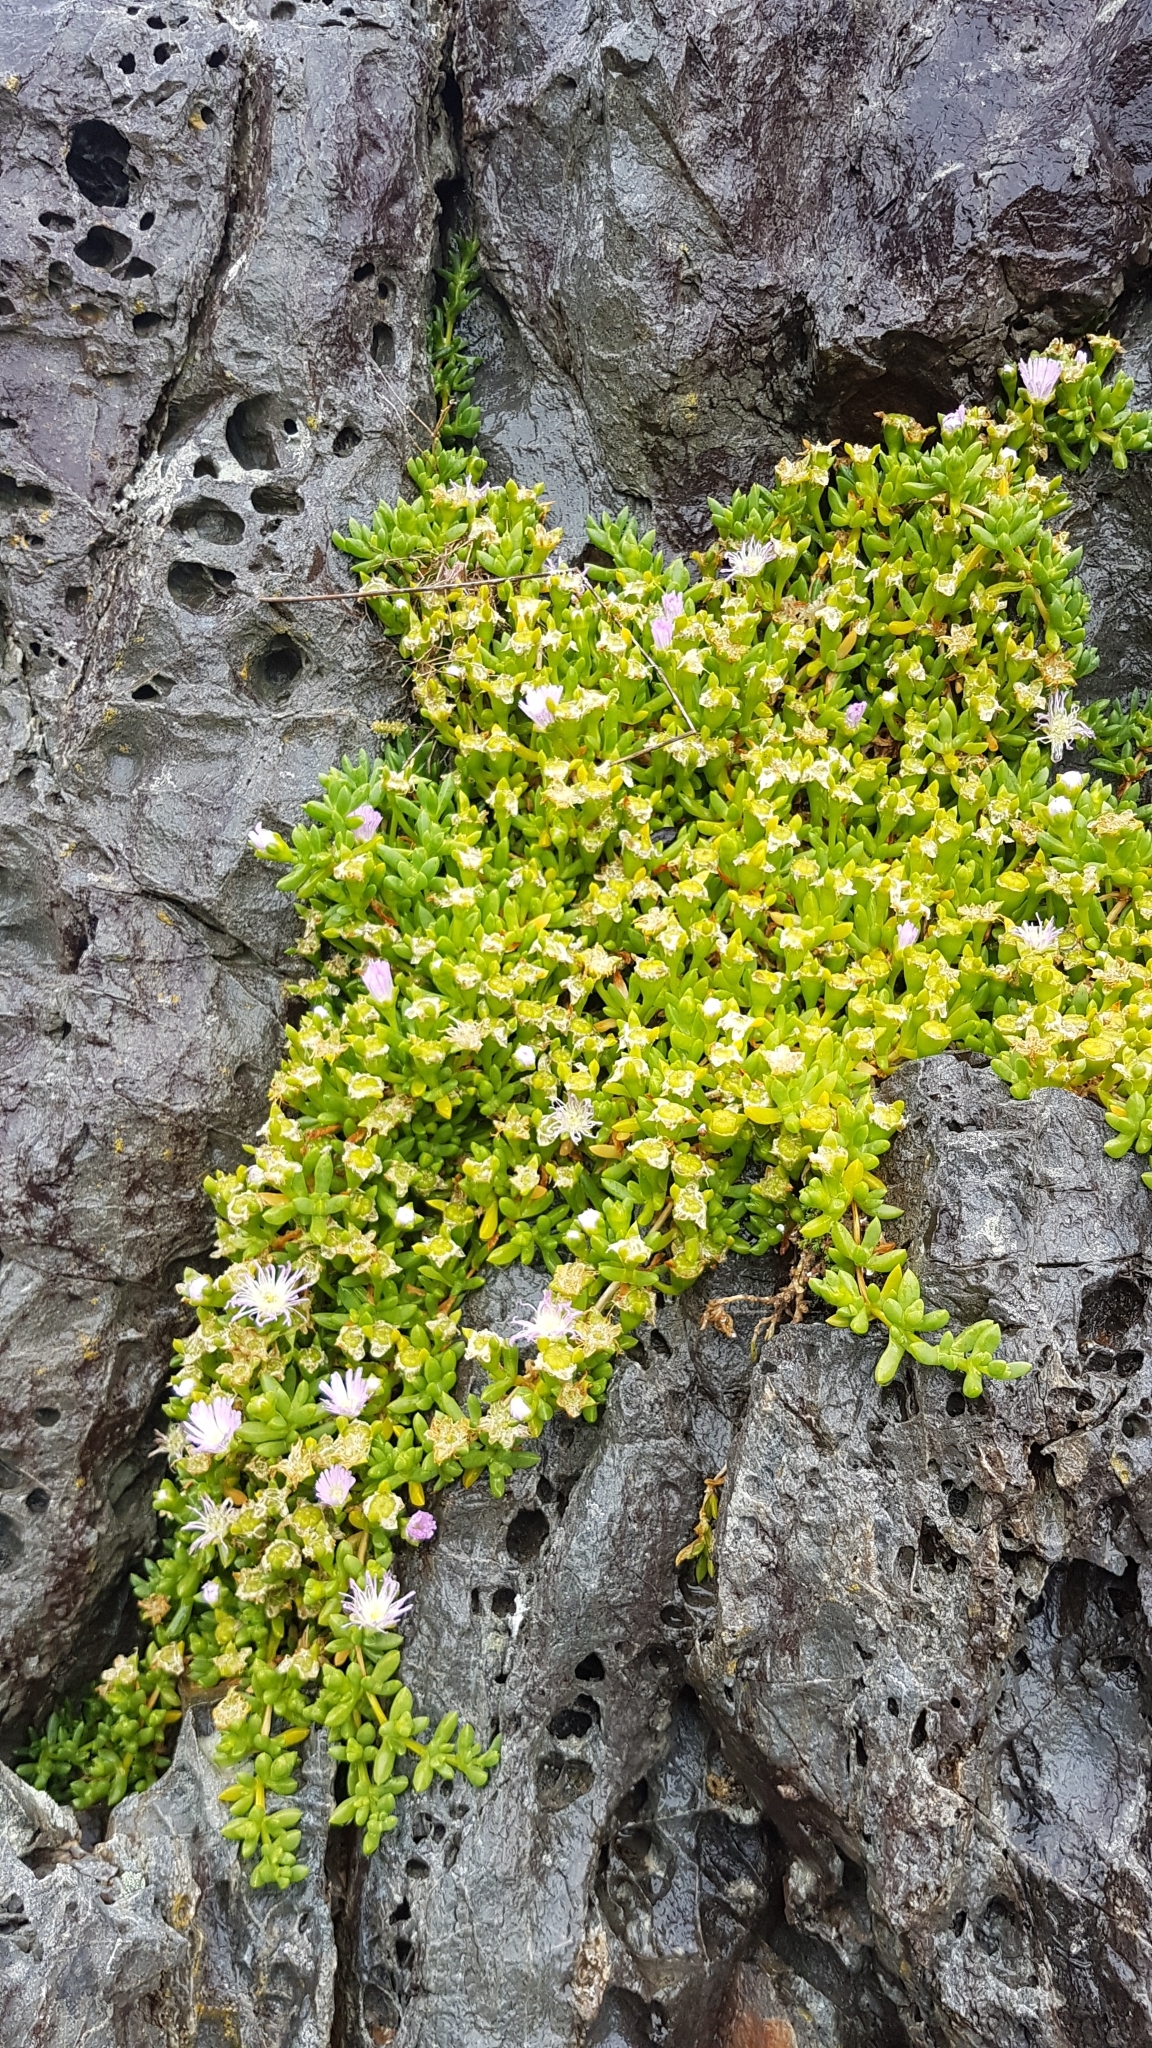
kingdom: Plantae
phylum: Tracheophyta
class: Magnoliopsida
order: Caryophyllales
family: Aizoaceae
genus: Disphyma
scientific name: Disphyma australe
